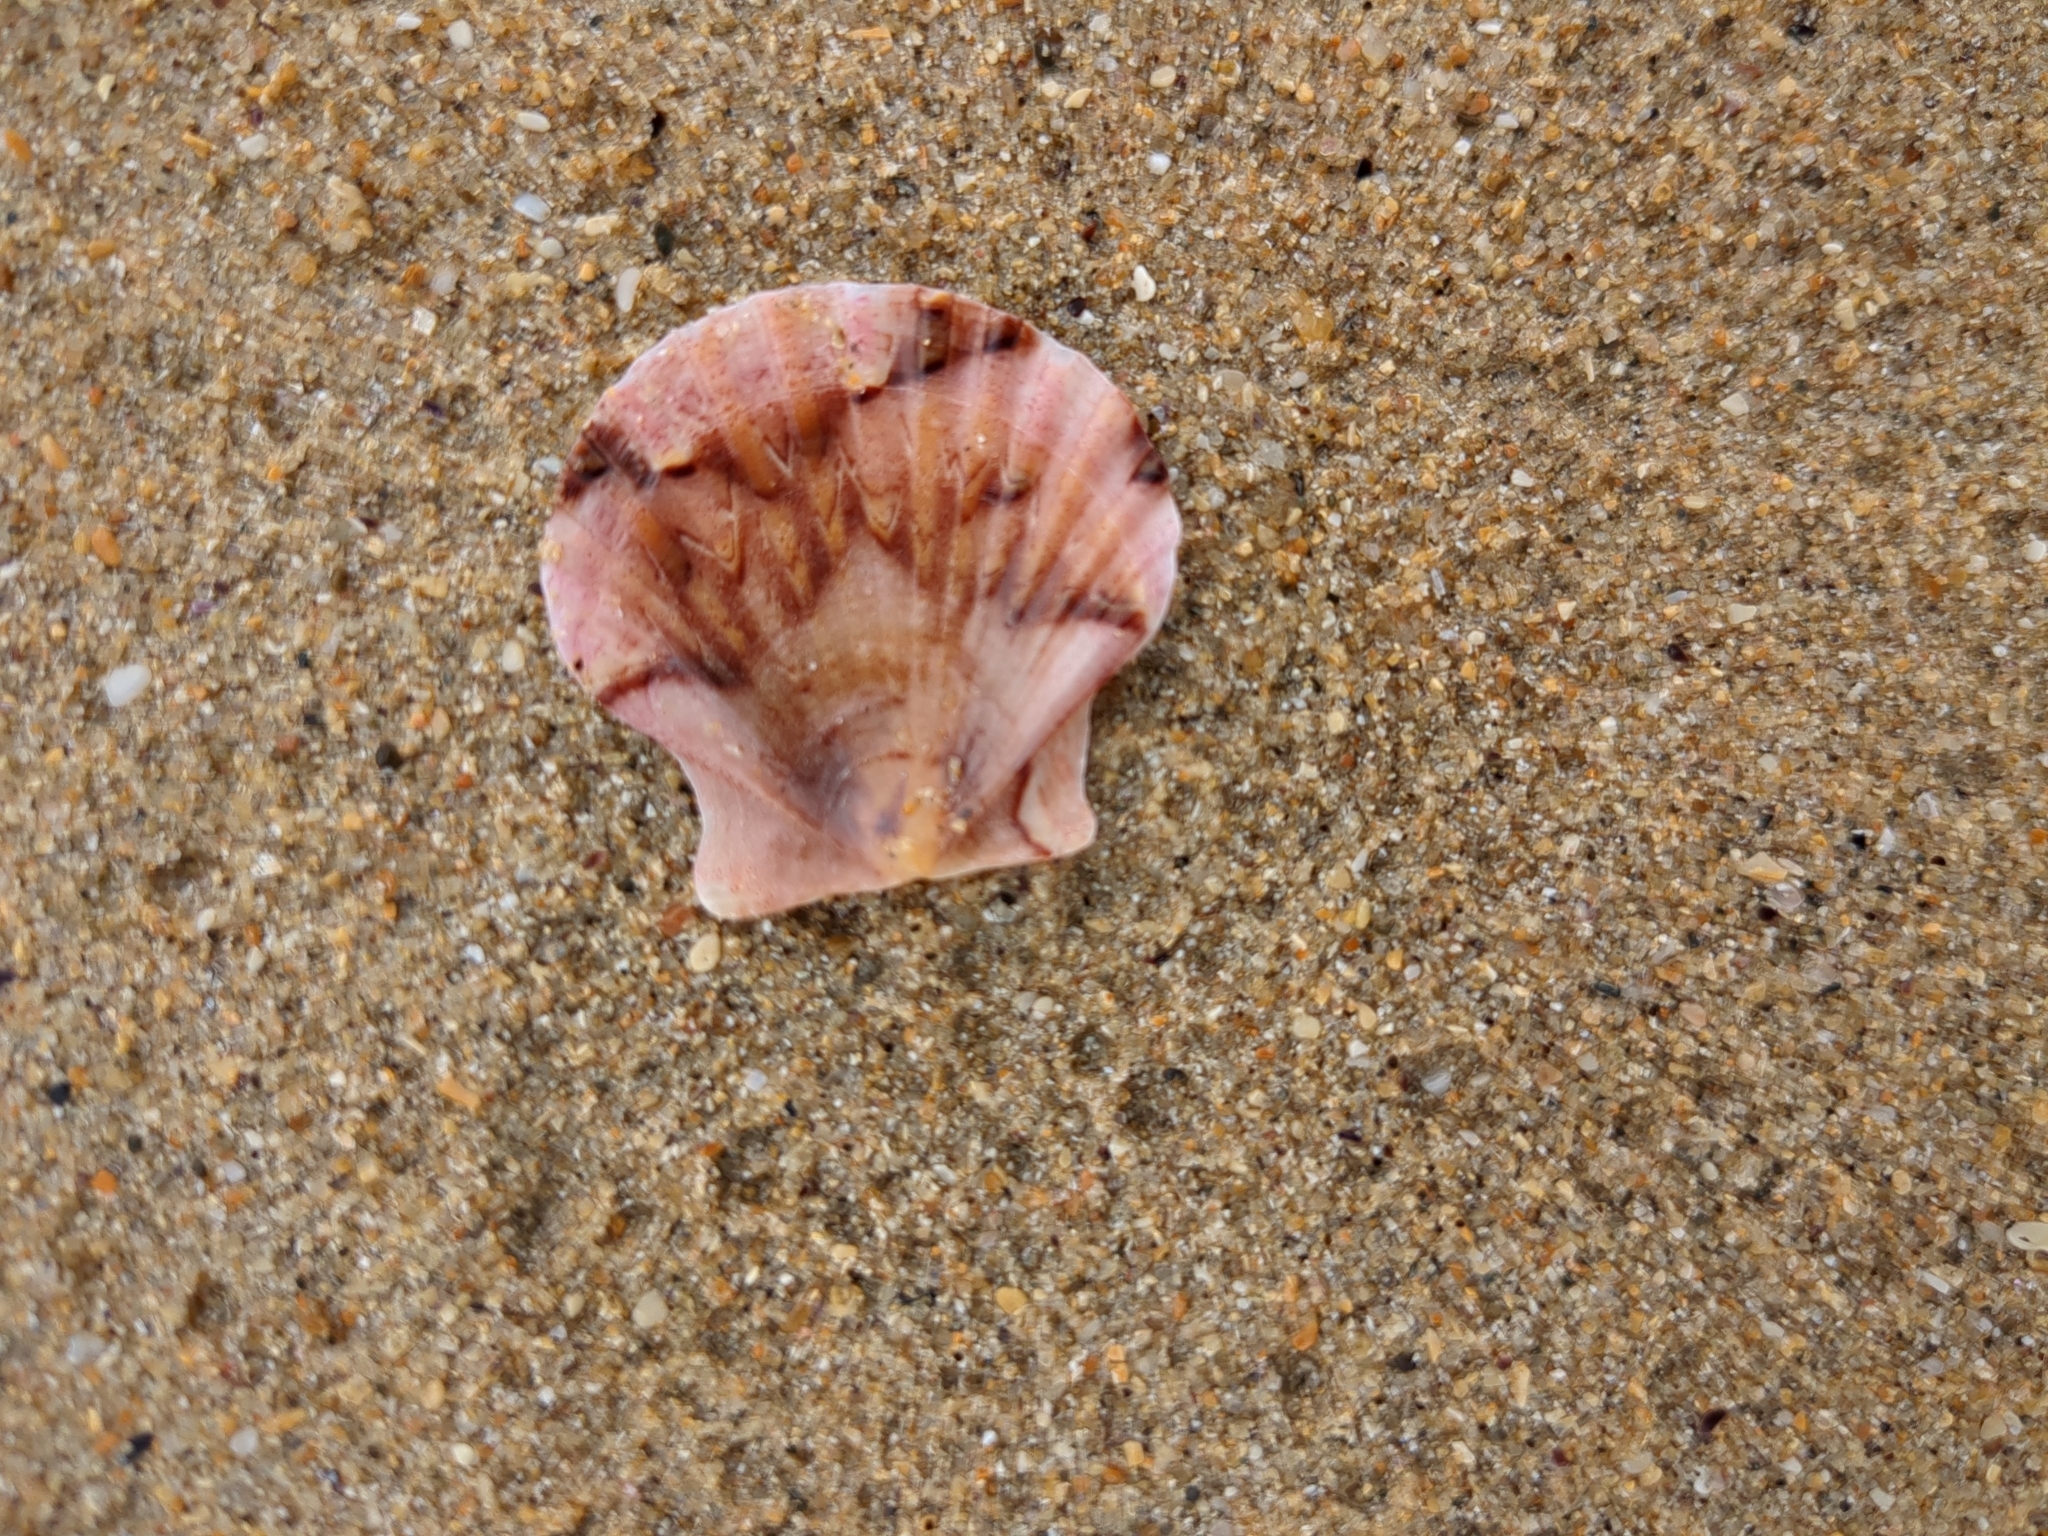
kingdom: Animalia
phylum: Mollusca
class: Bivalvia
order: Pectinida
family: Pectinidae
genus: Pecten
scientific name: Pecten maximus
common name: Great scallop
